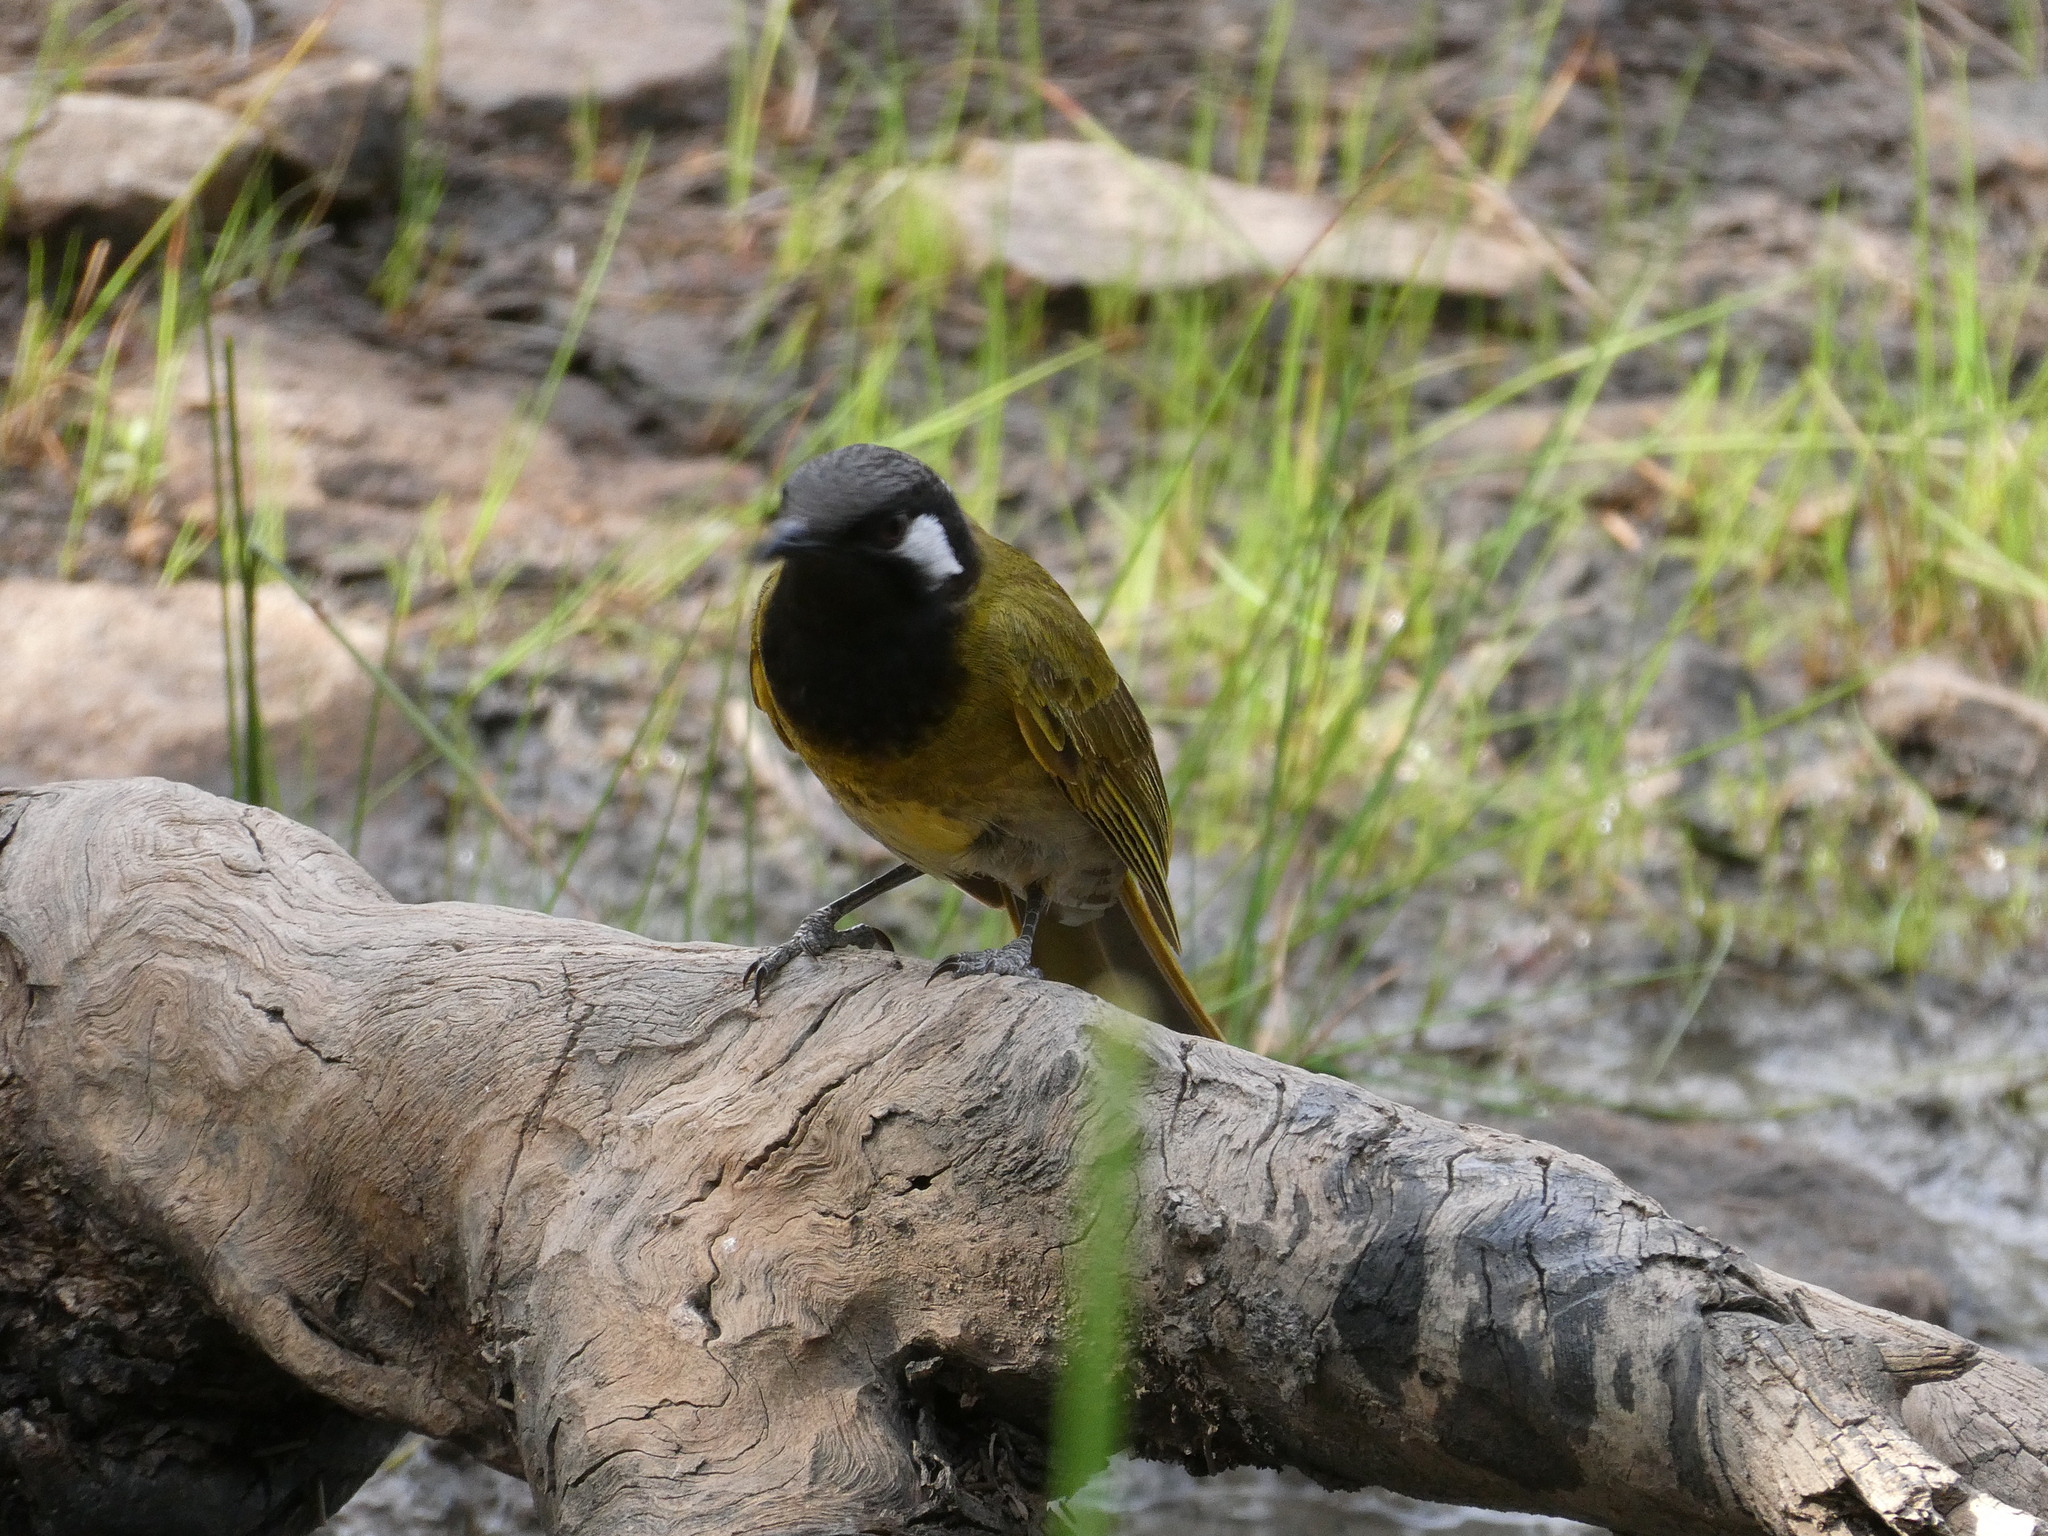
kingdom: Animalia
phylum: Chordata
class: Aves
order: Passeriformes
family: Meliphagidae
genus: Nesoptilotis
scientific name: Nesoptilotis leucotis
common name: White-eared honeyeater
